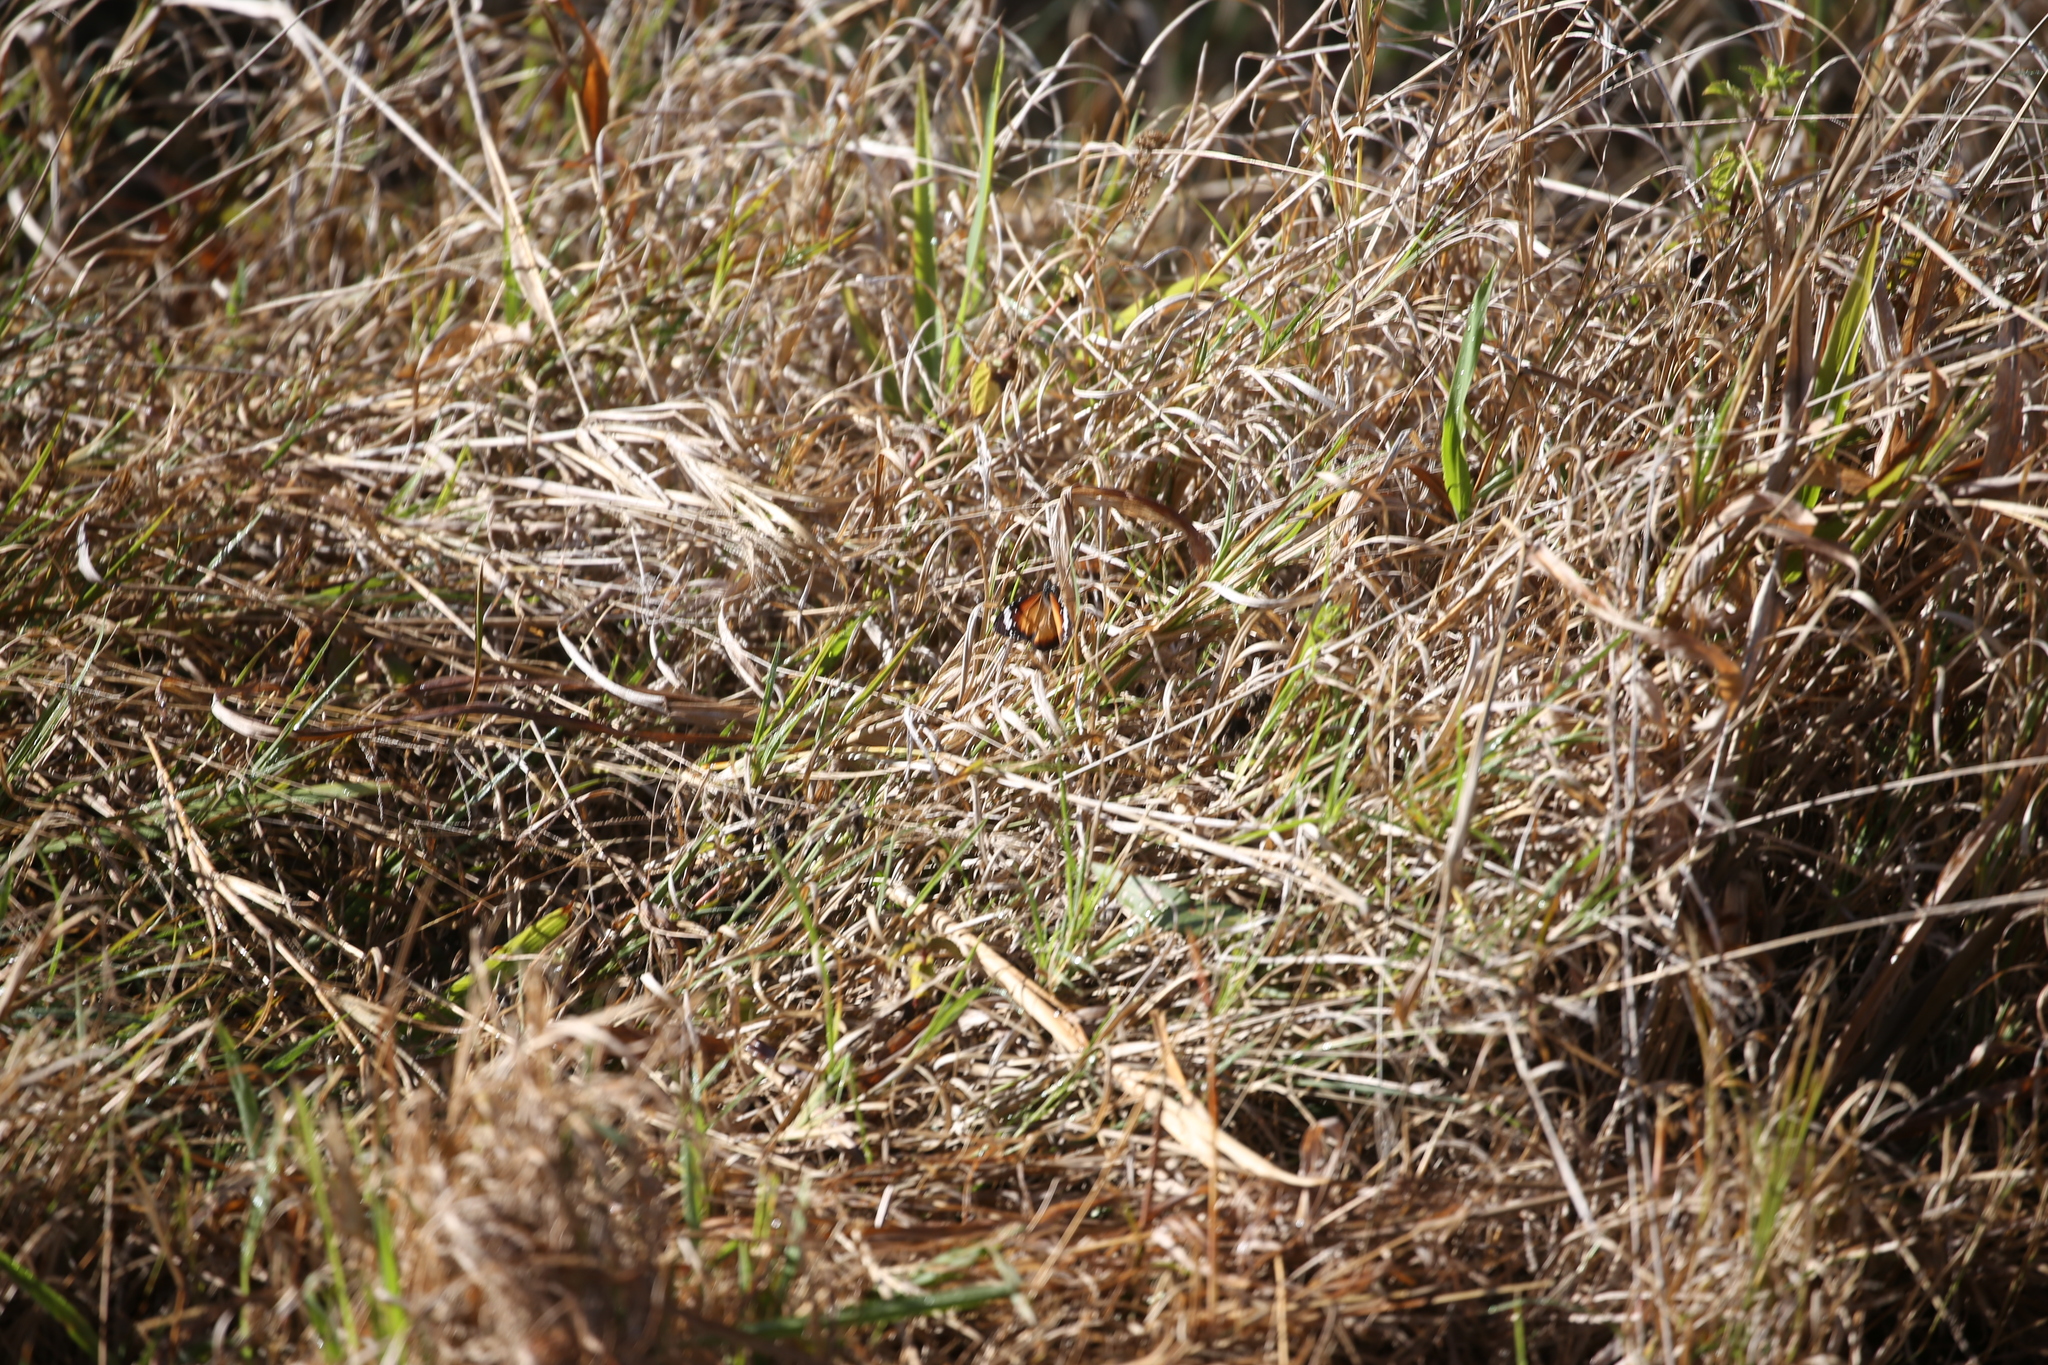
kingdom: Animalia
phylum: Arthropoda
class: Insecta
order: Lepidoptera
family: Nymphalidae
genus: Danaus
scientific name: Danaus chrysippus
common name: Plain tiger
